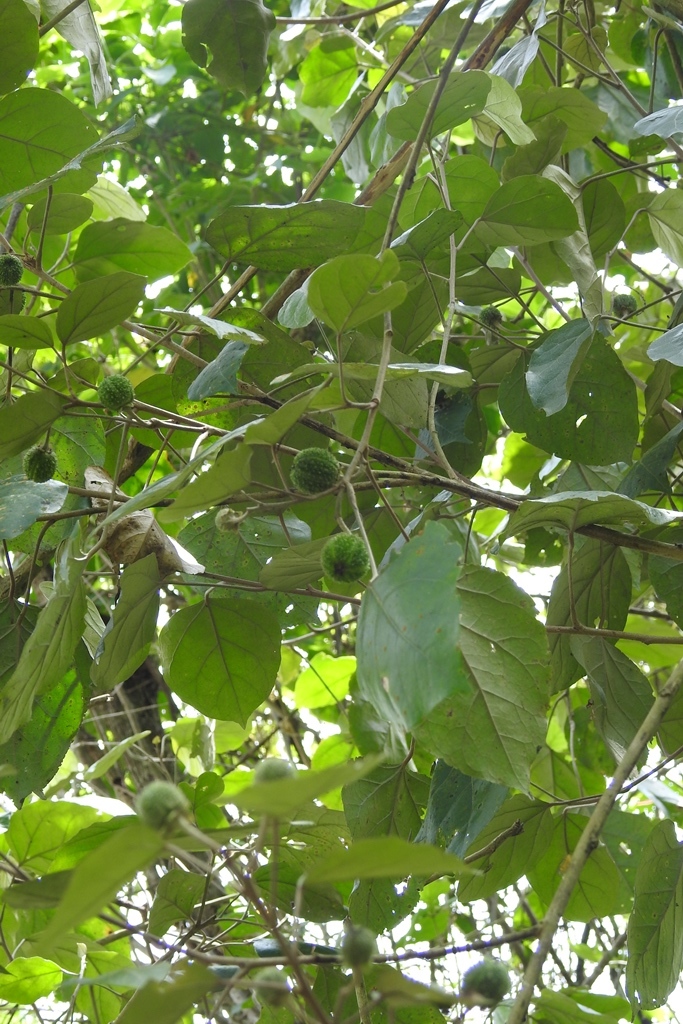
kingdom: Plantae
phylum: Tracheophyta
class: Magnoliopsida
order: Malpighiales
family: Euphorbiaceae
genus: Croton
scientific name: Croton reflexifolius
